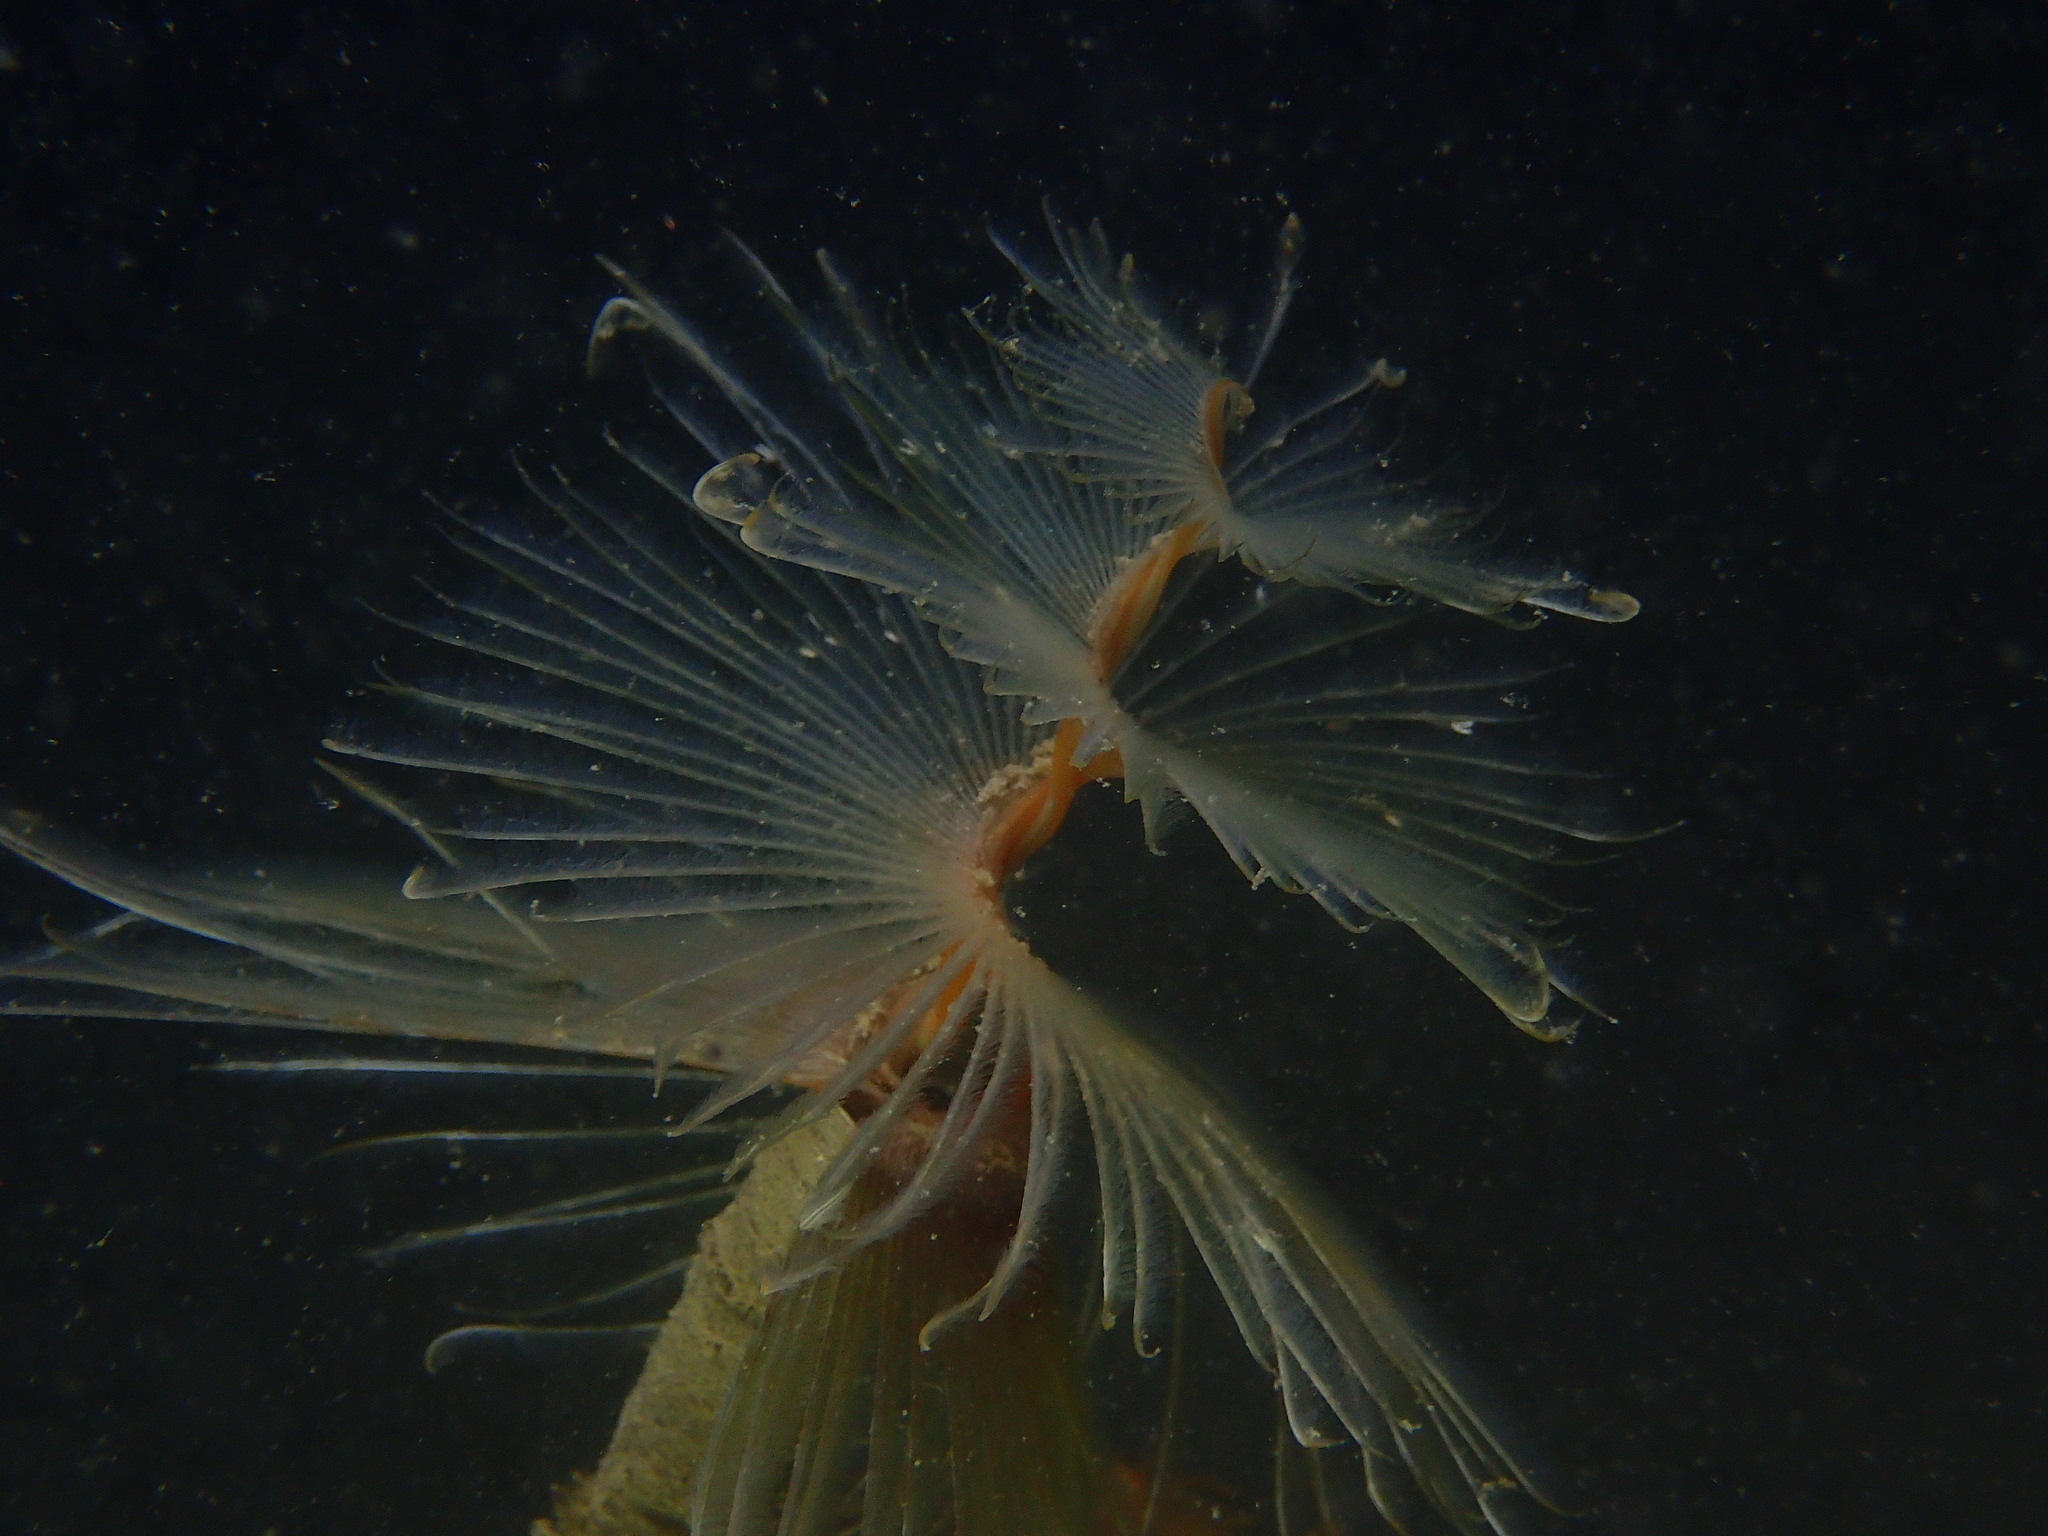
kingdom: Animalia
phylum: Annelida
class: Polychaeta
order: Sabellida
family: Sabellidae
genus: Sabella
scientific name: Sabella spallanzanii
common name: Feather duster worm
